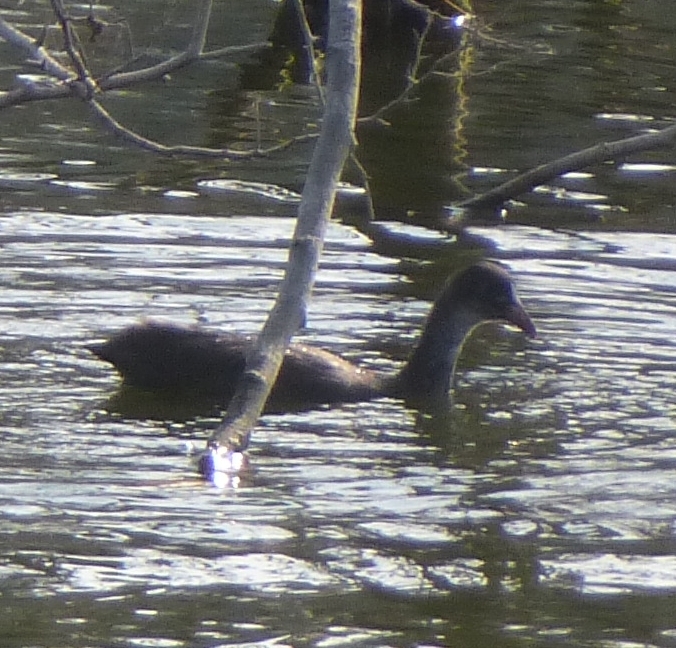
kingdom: Animalia
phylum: Chordata
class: Aves
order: Gruiformes
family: Rallidae
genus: Fulica
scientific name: Fulica atra
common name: Eurasian coot
